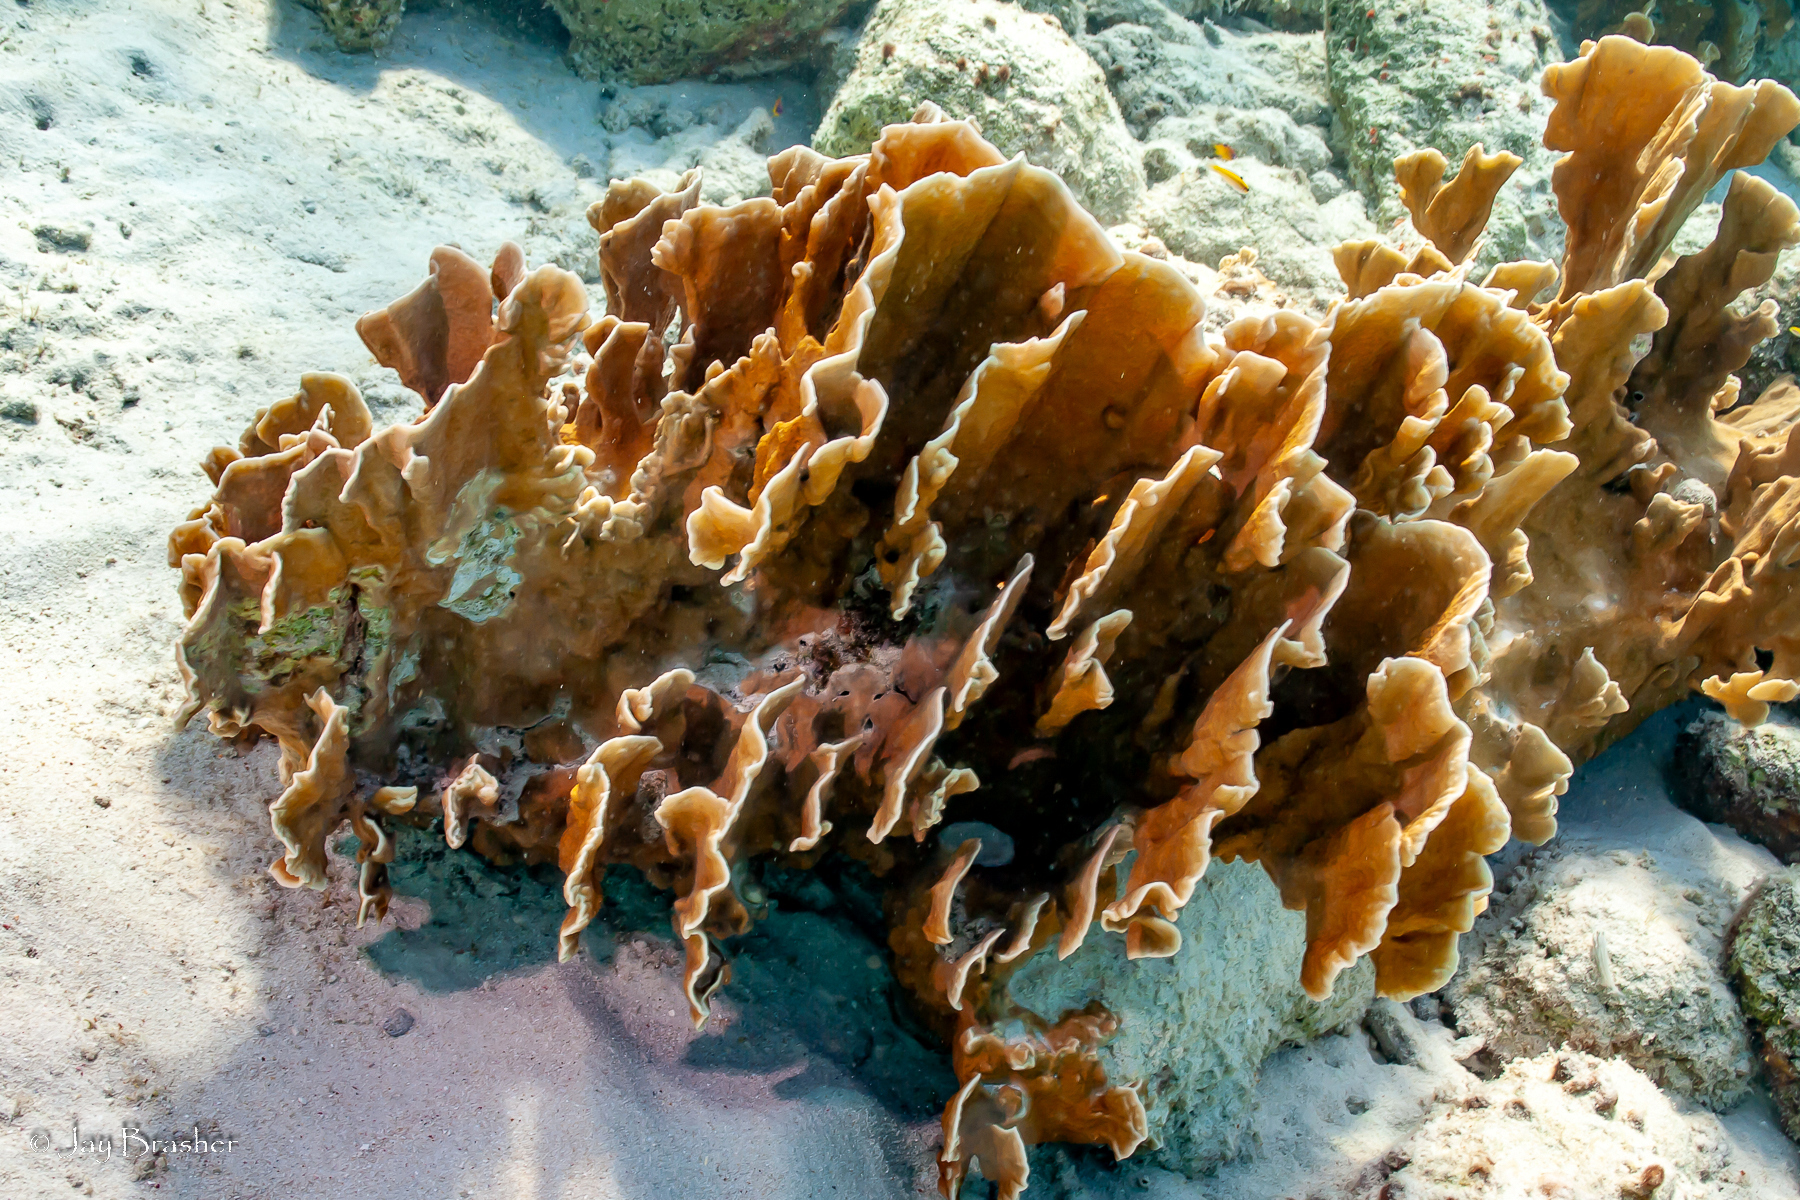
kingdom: Animalia
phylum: Cnidaria
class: Hydrozoa
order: Anthoathecata
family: Milleporidae
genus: Millepora
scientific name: Millepora complanata
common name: Bladed fire coral
